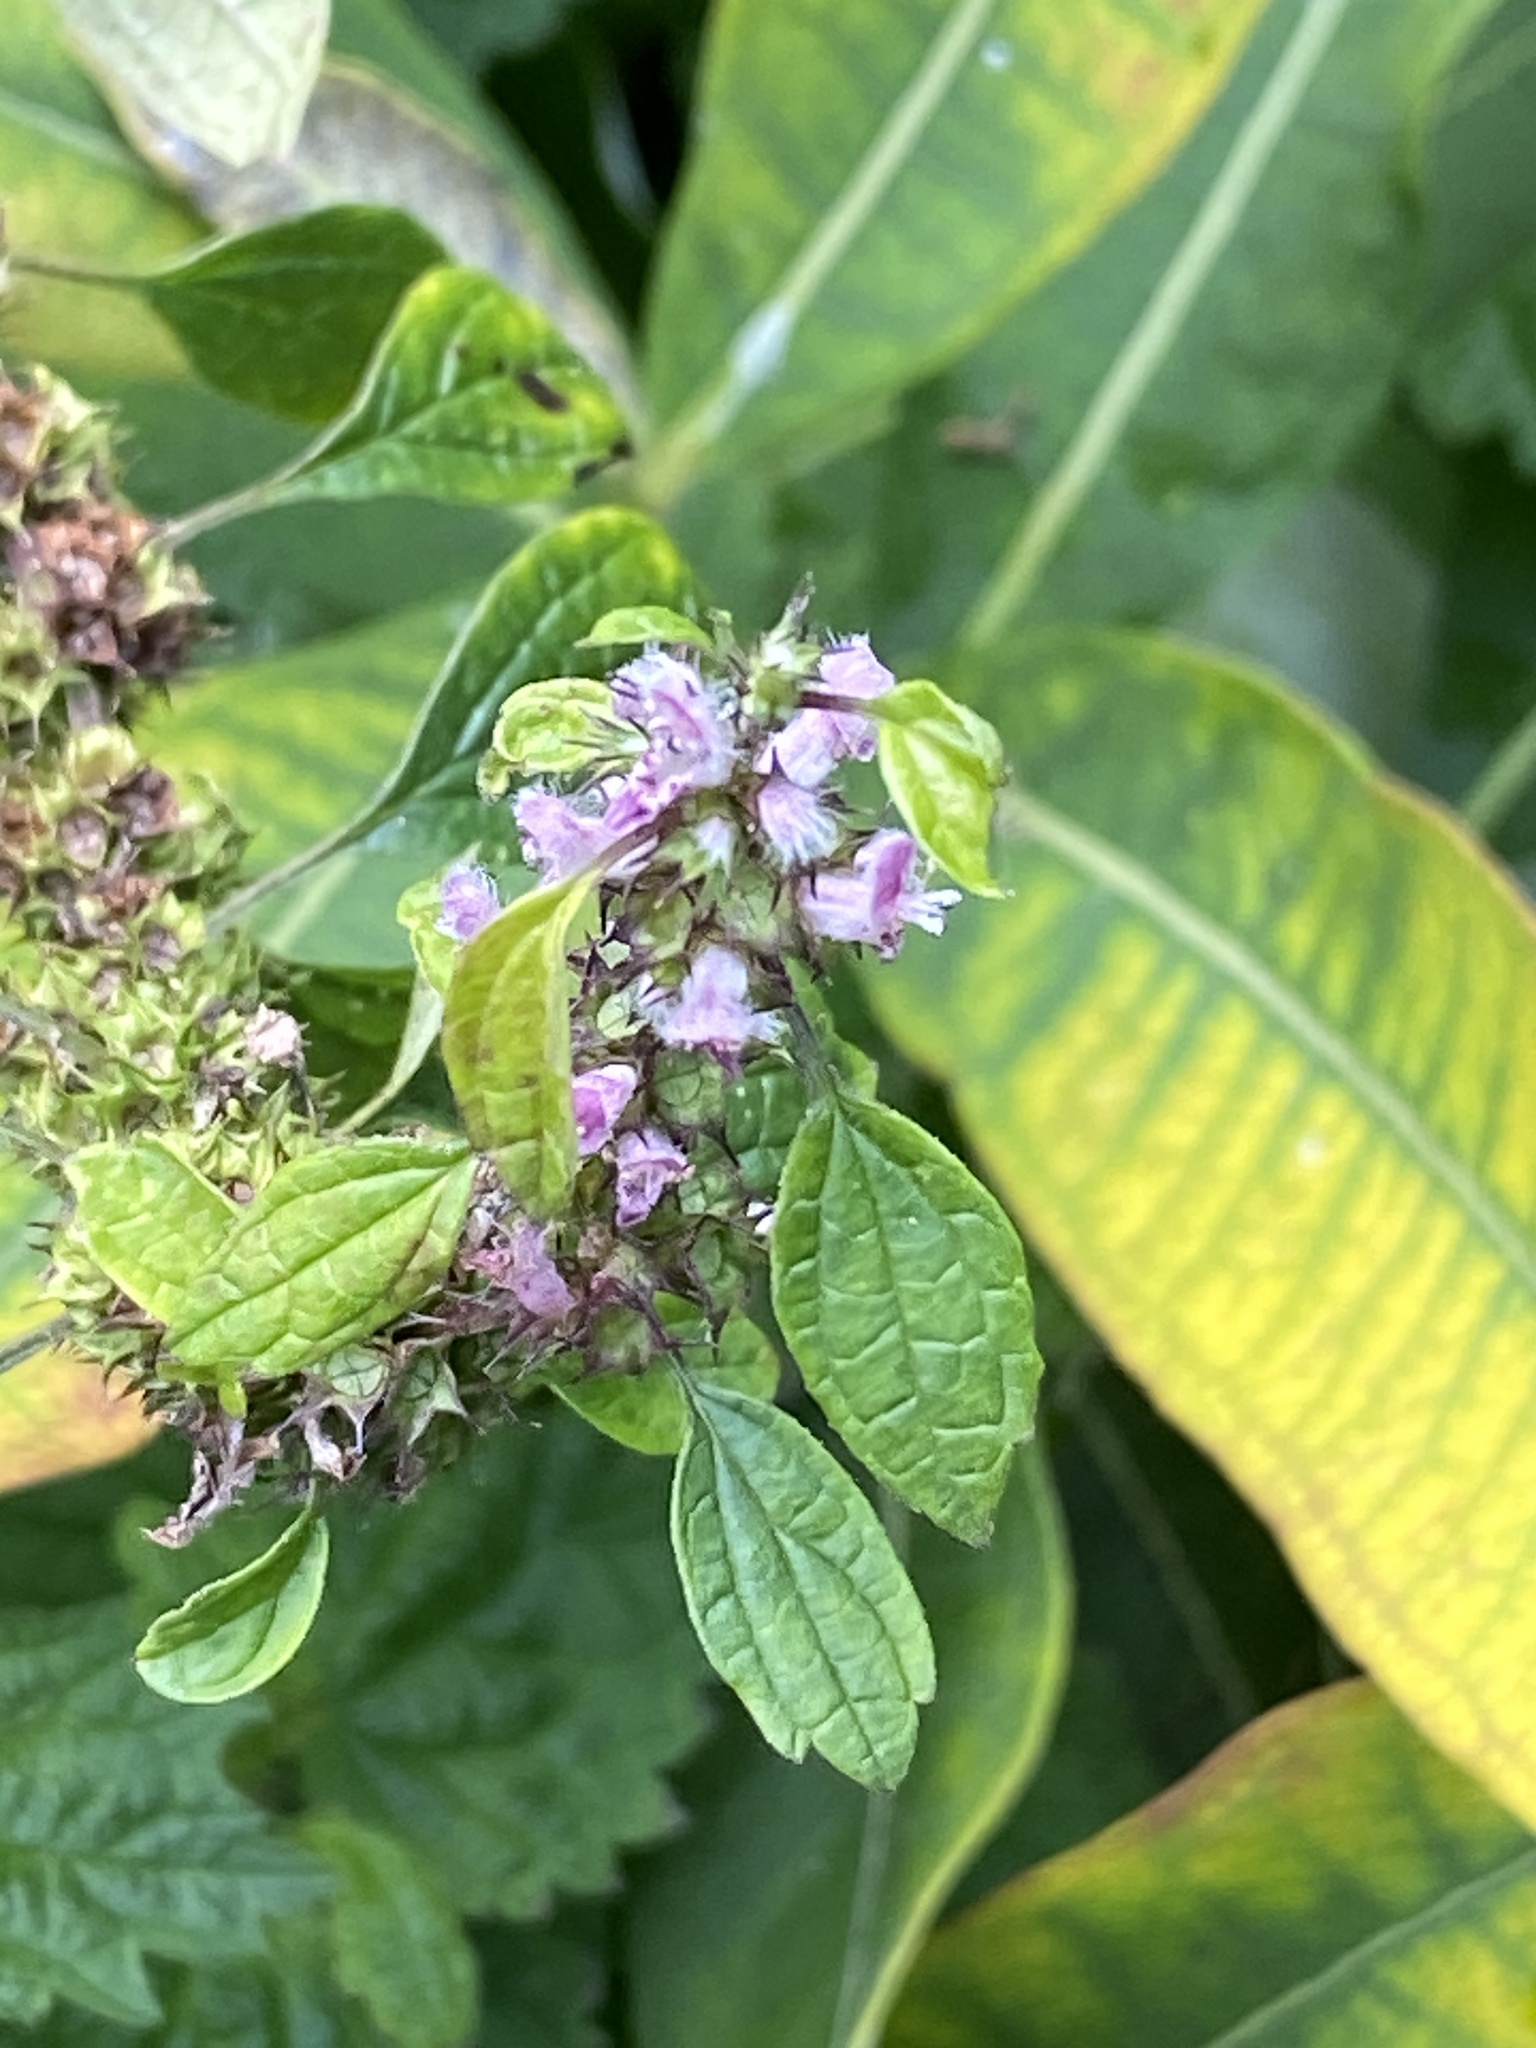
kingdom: Plantae
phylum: Tracheophyta
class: Magnoliopsida
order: Lamiales
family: Lamiaceae
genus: Leonurus
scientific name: Leonurus cardiaca
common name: Motherwort
